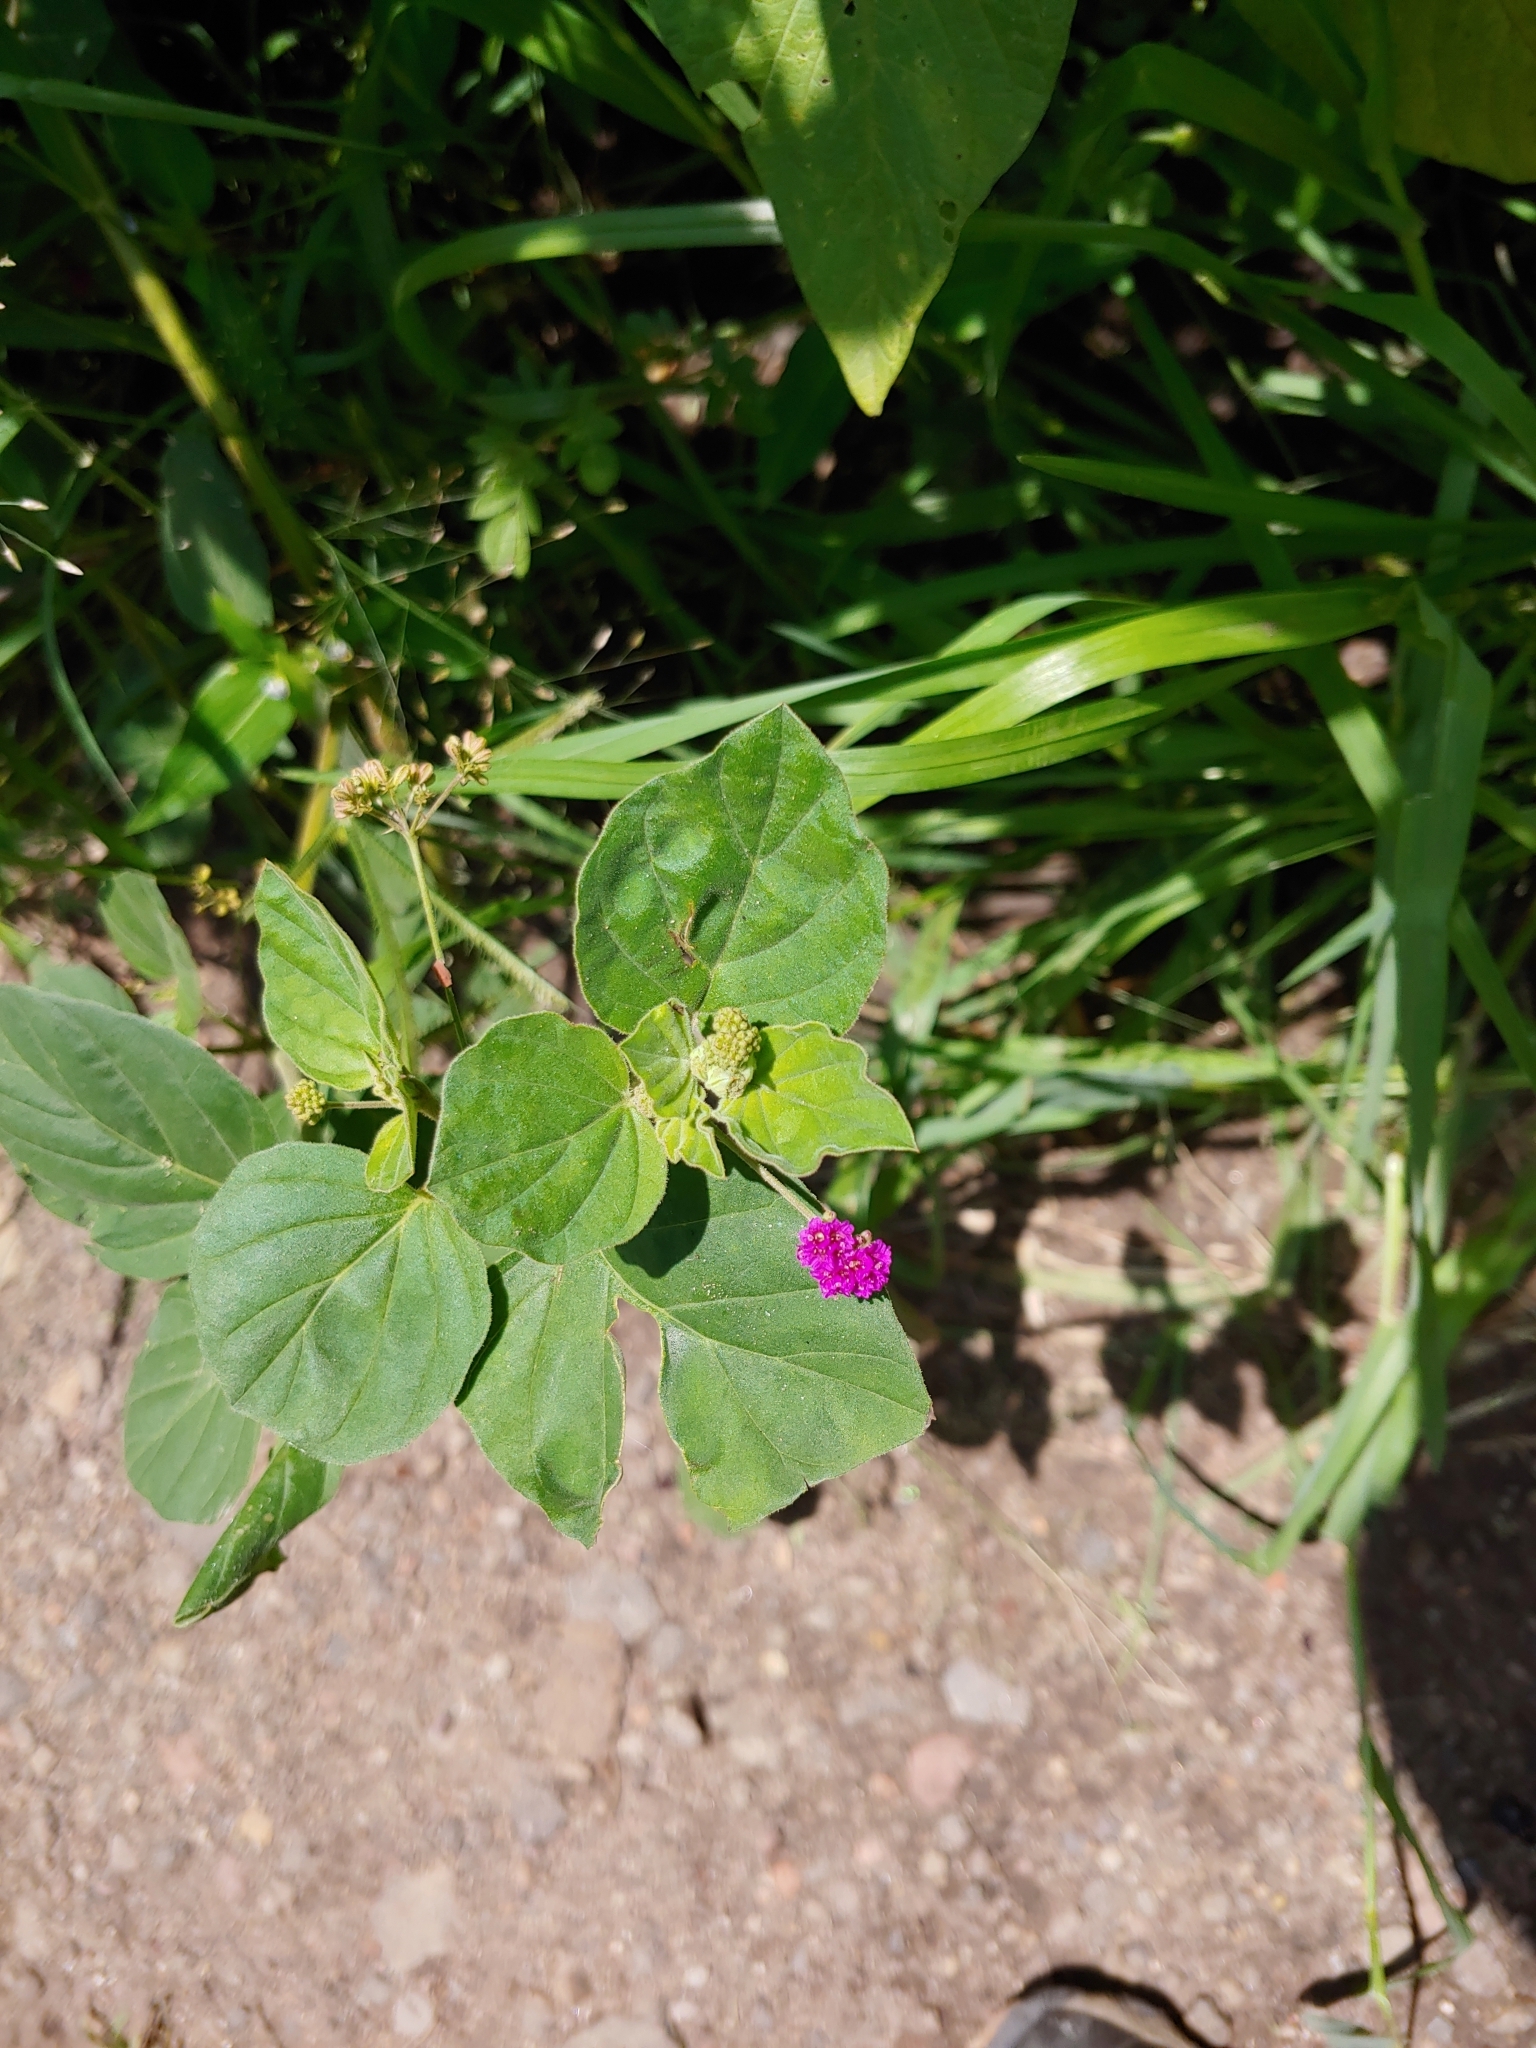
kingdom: Plantae
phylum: Tracheophyta
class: Magnoliopsida
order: Caryophyllales
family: Nyctaginaceae
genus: Boerhavia
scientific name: Boerhavia coccinea
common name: Scarlet spiderling
